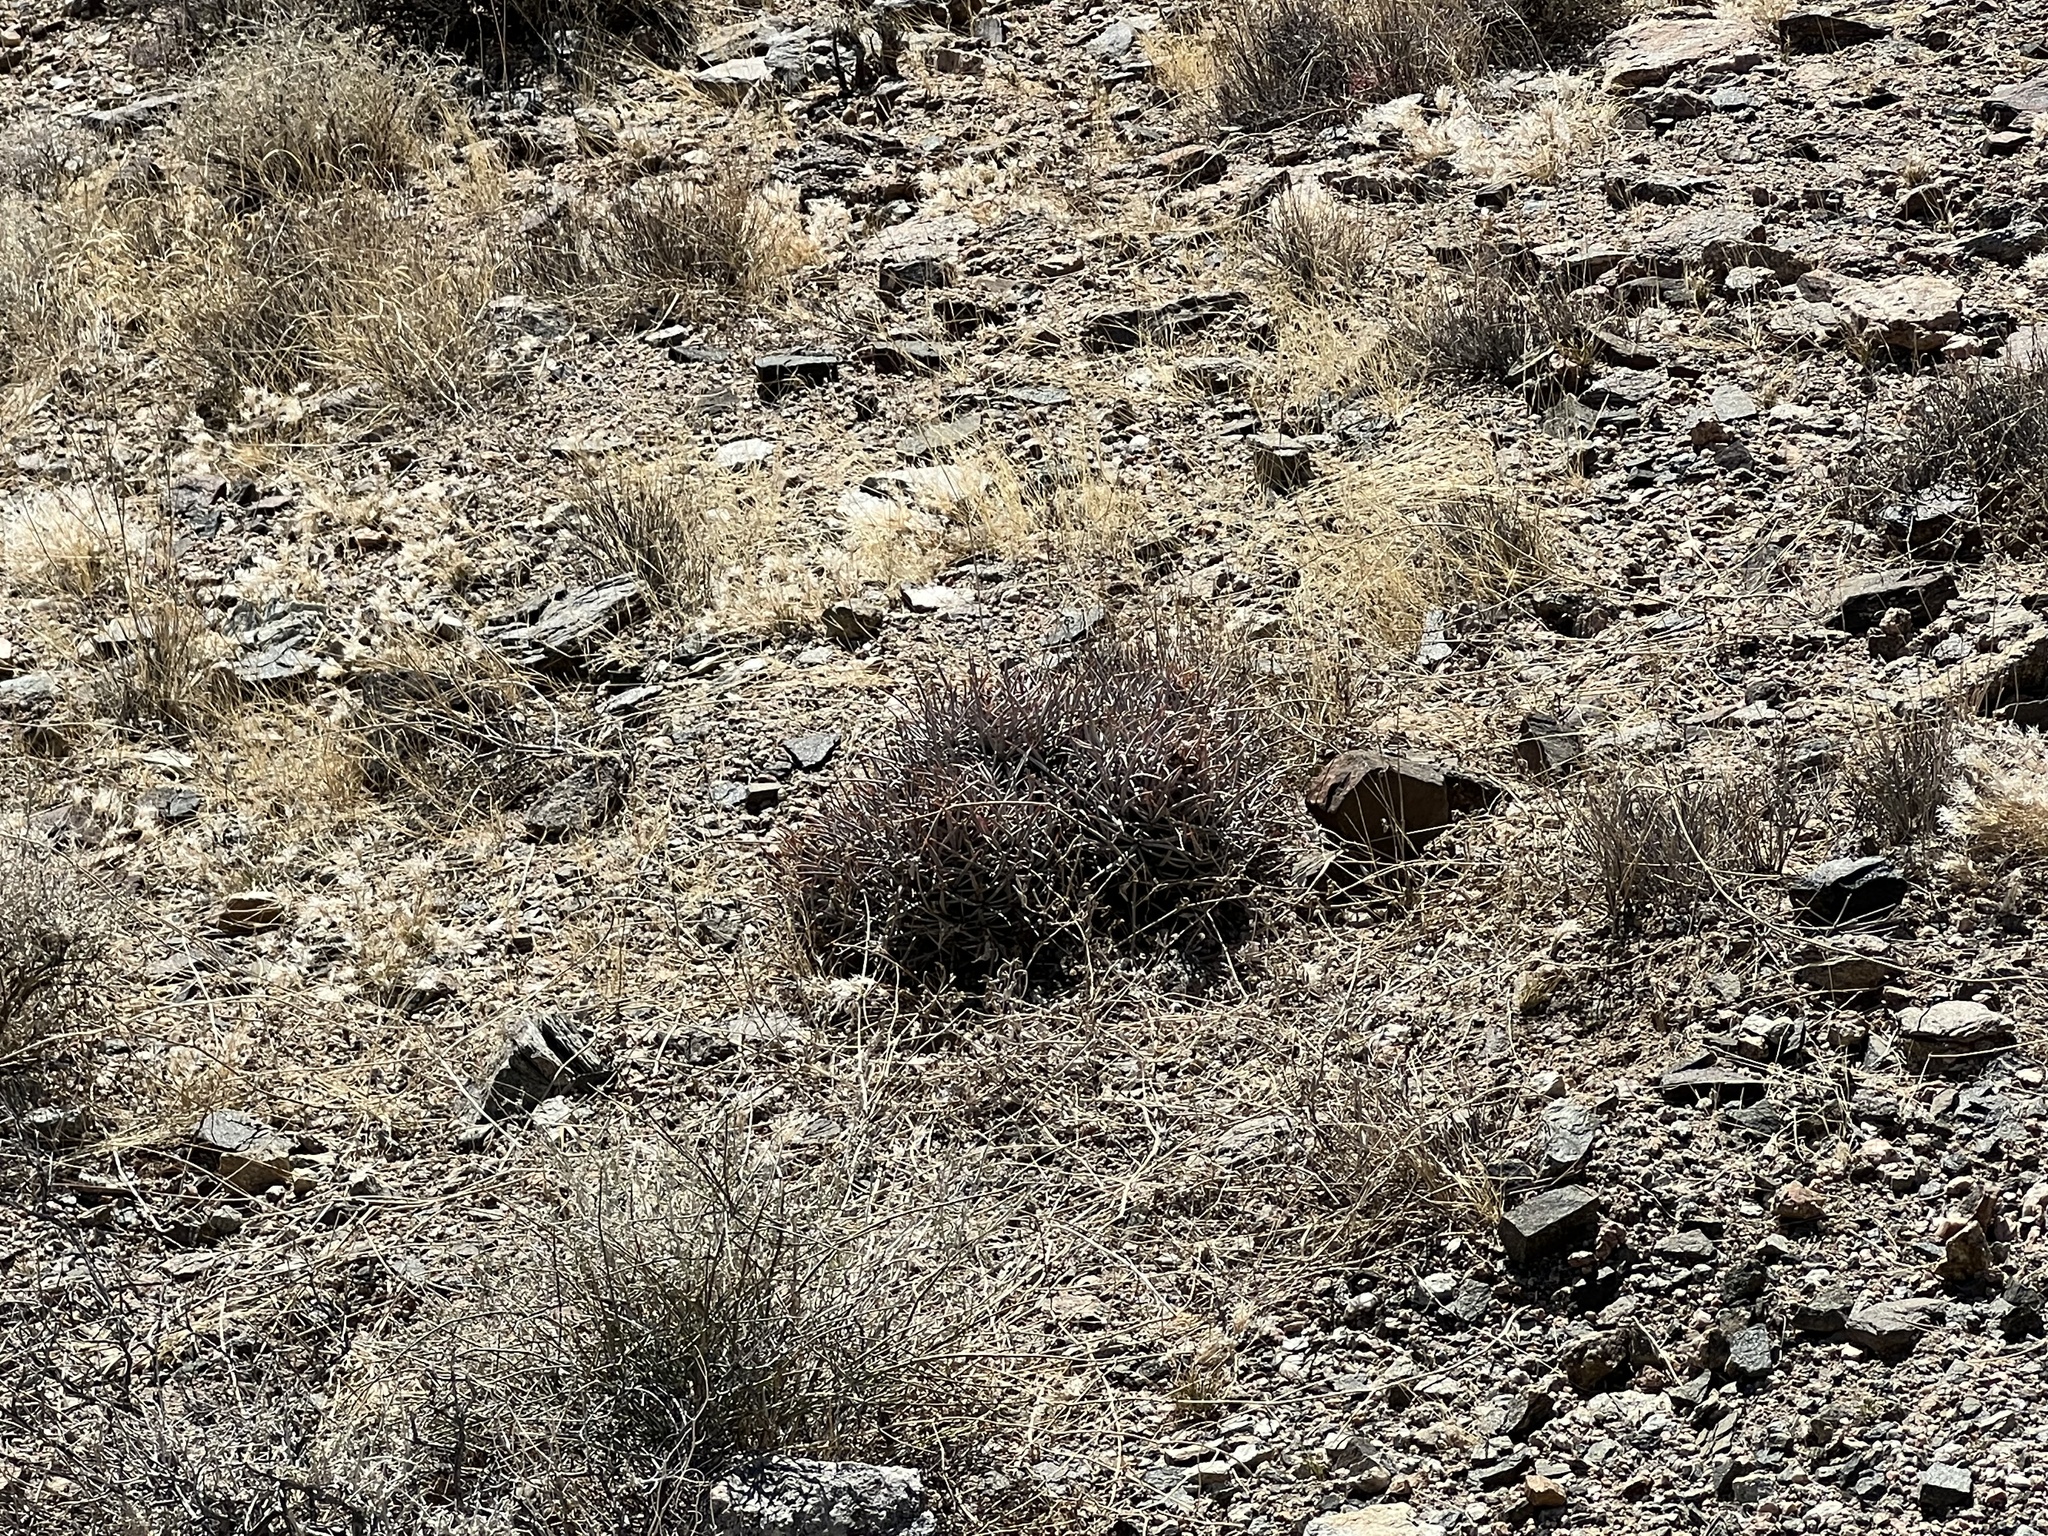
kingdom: Plantae
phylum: Tracheophyta
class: Magnoliopsida
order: Caryophyllales
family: Cactaceae
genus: Echinocactus
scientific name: Echinocactus polycephalus
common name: Cottontop cactus
